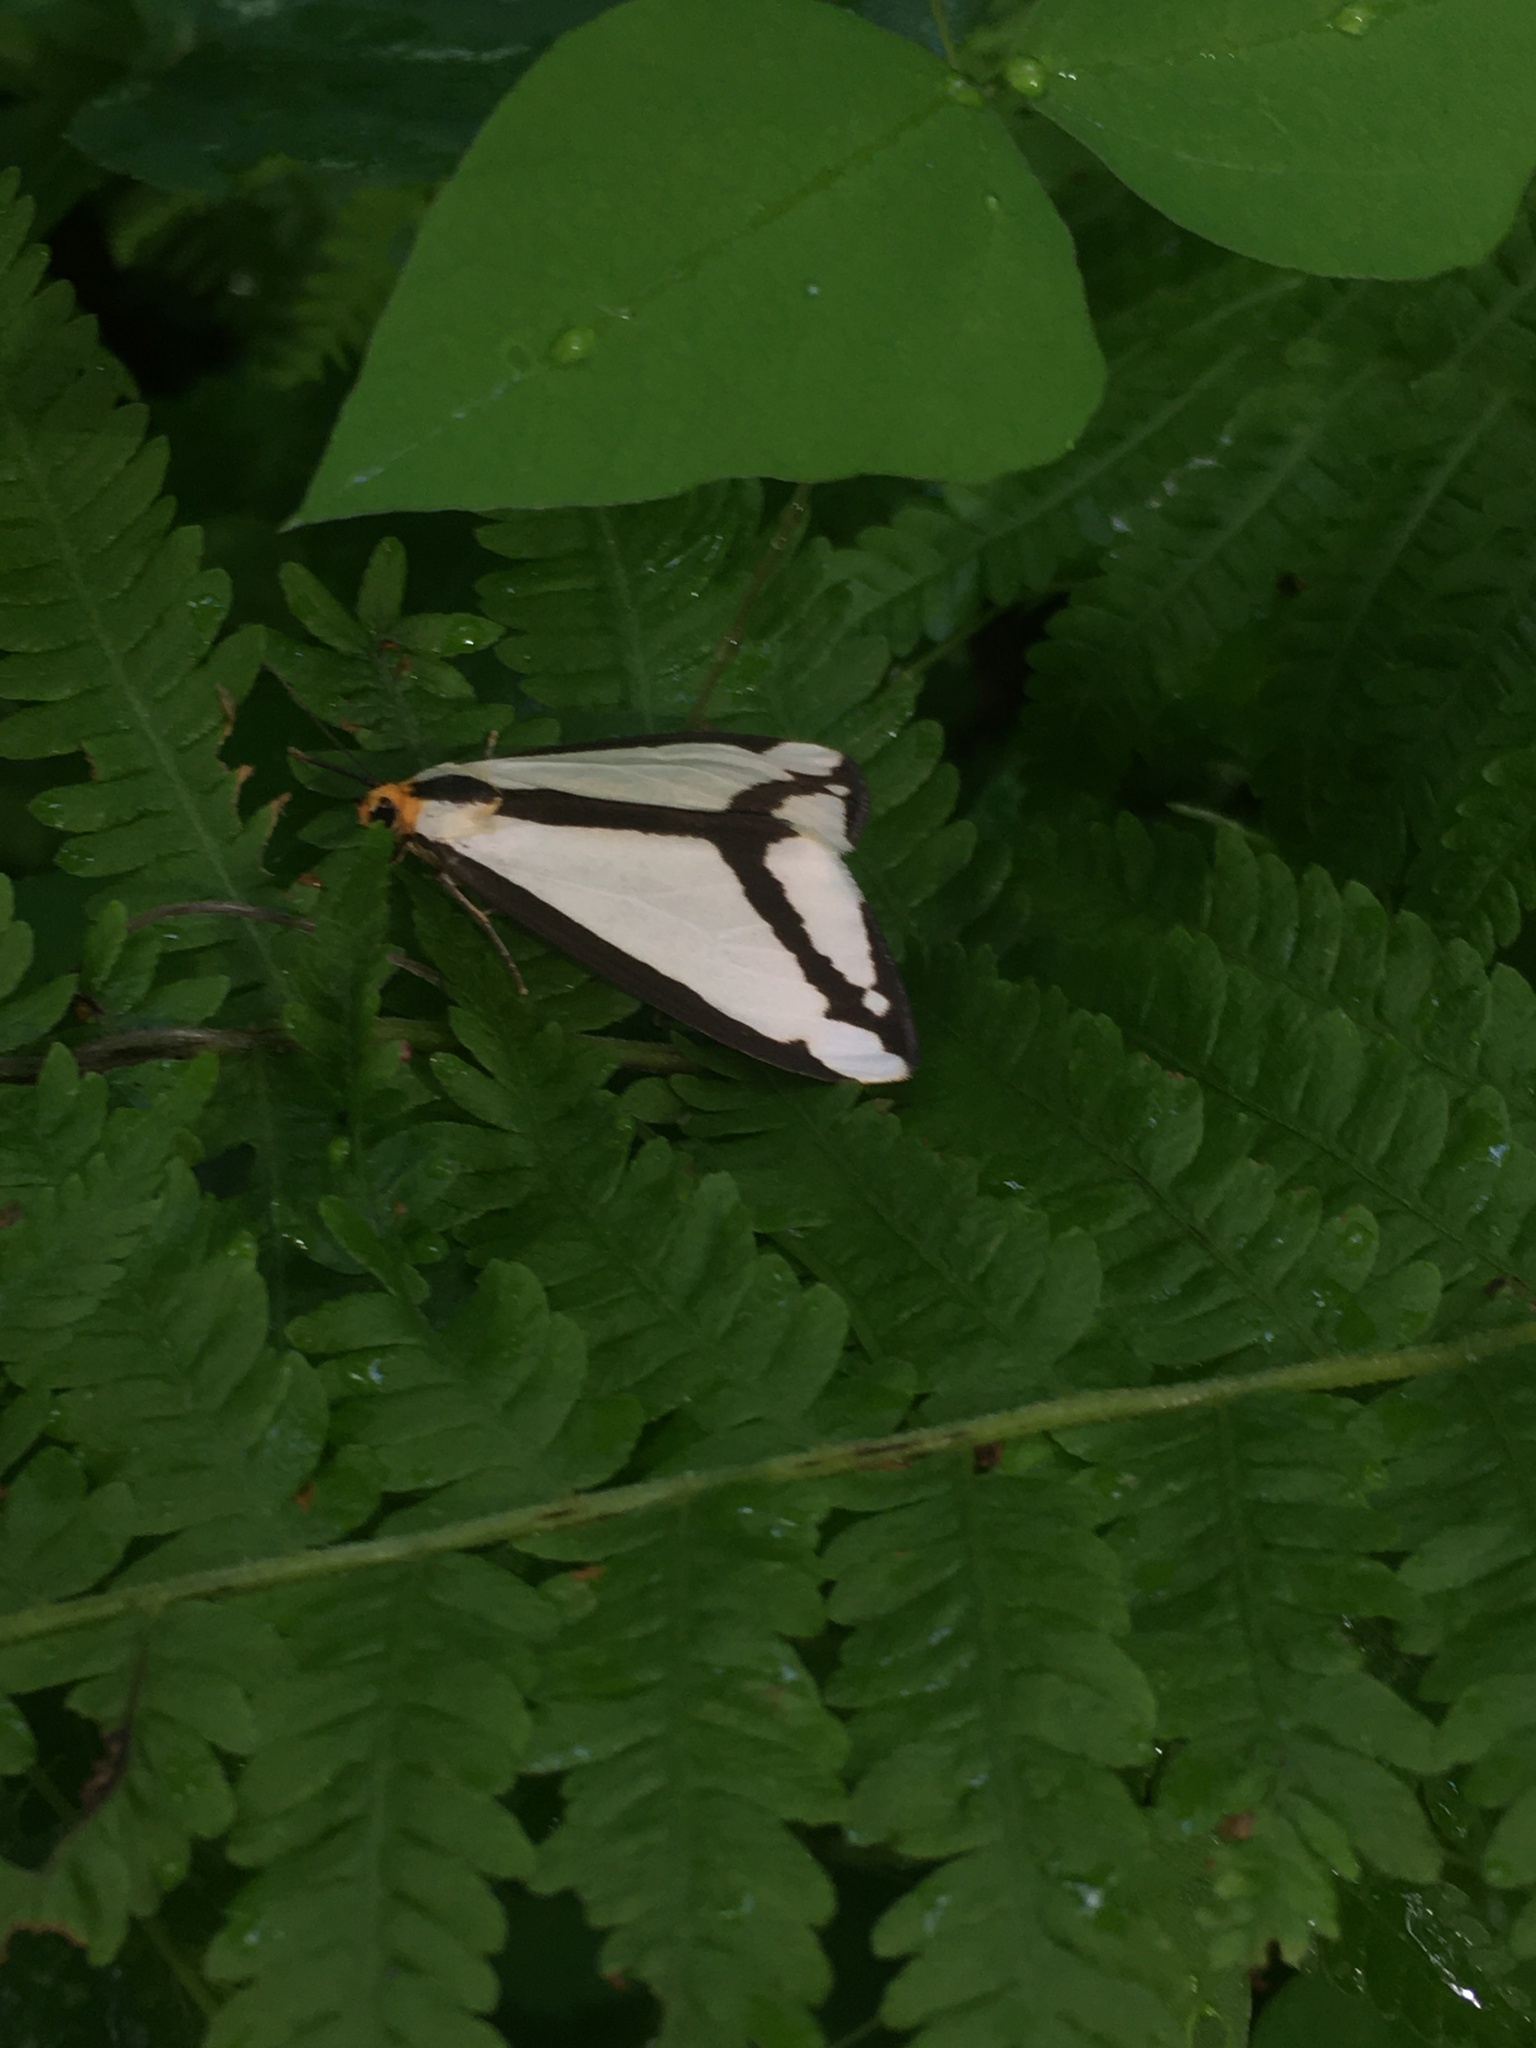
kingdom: Animalia
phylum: Arthropoda
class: Insecta
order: Lepidoptera
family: Erebidae
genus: Haploa
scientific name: Haploa lecontei
